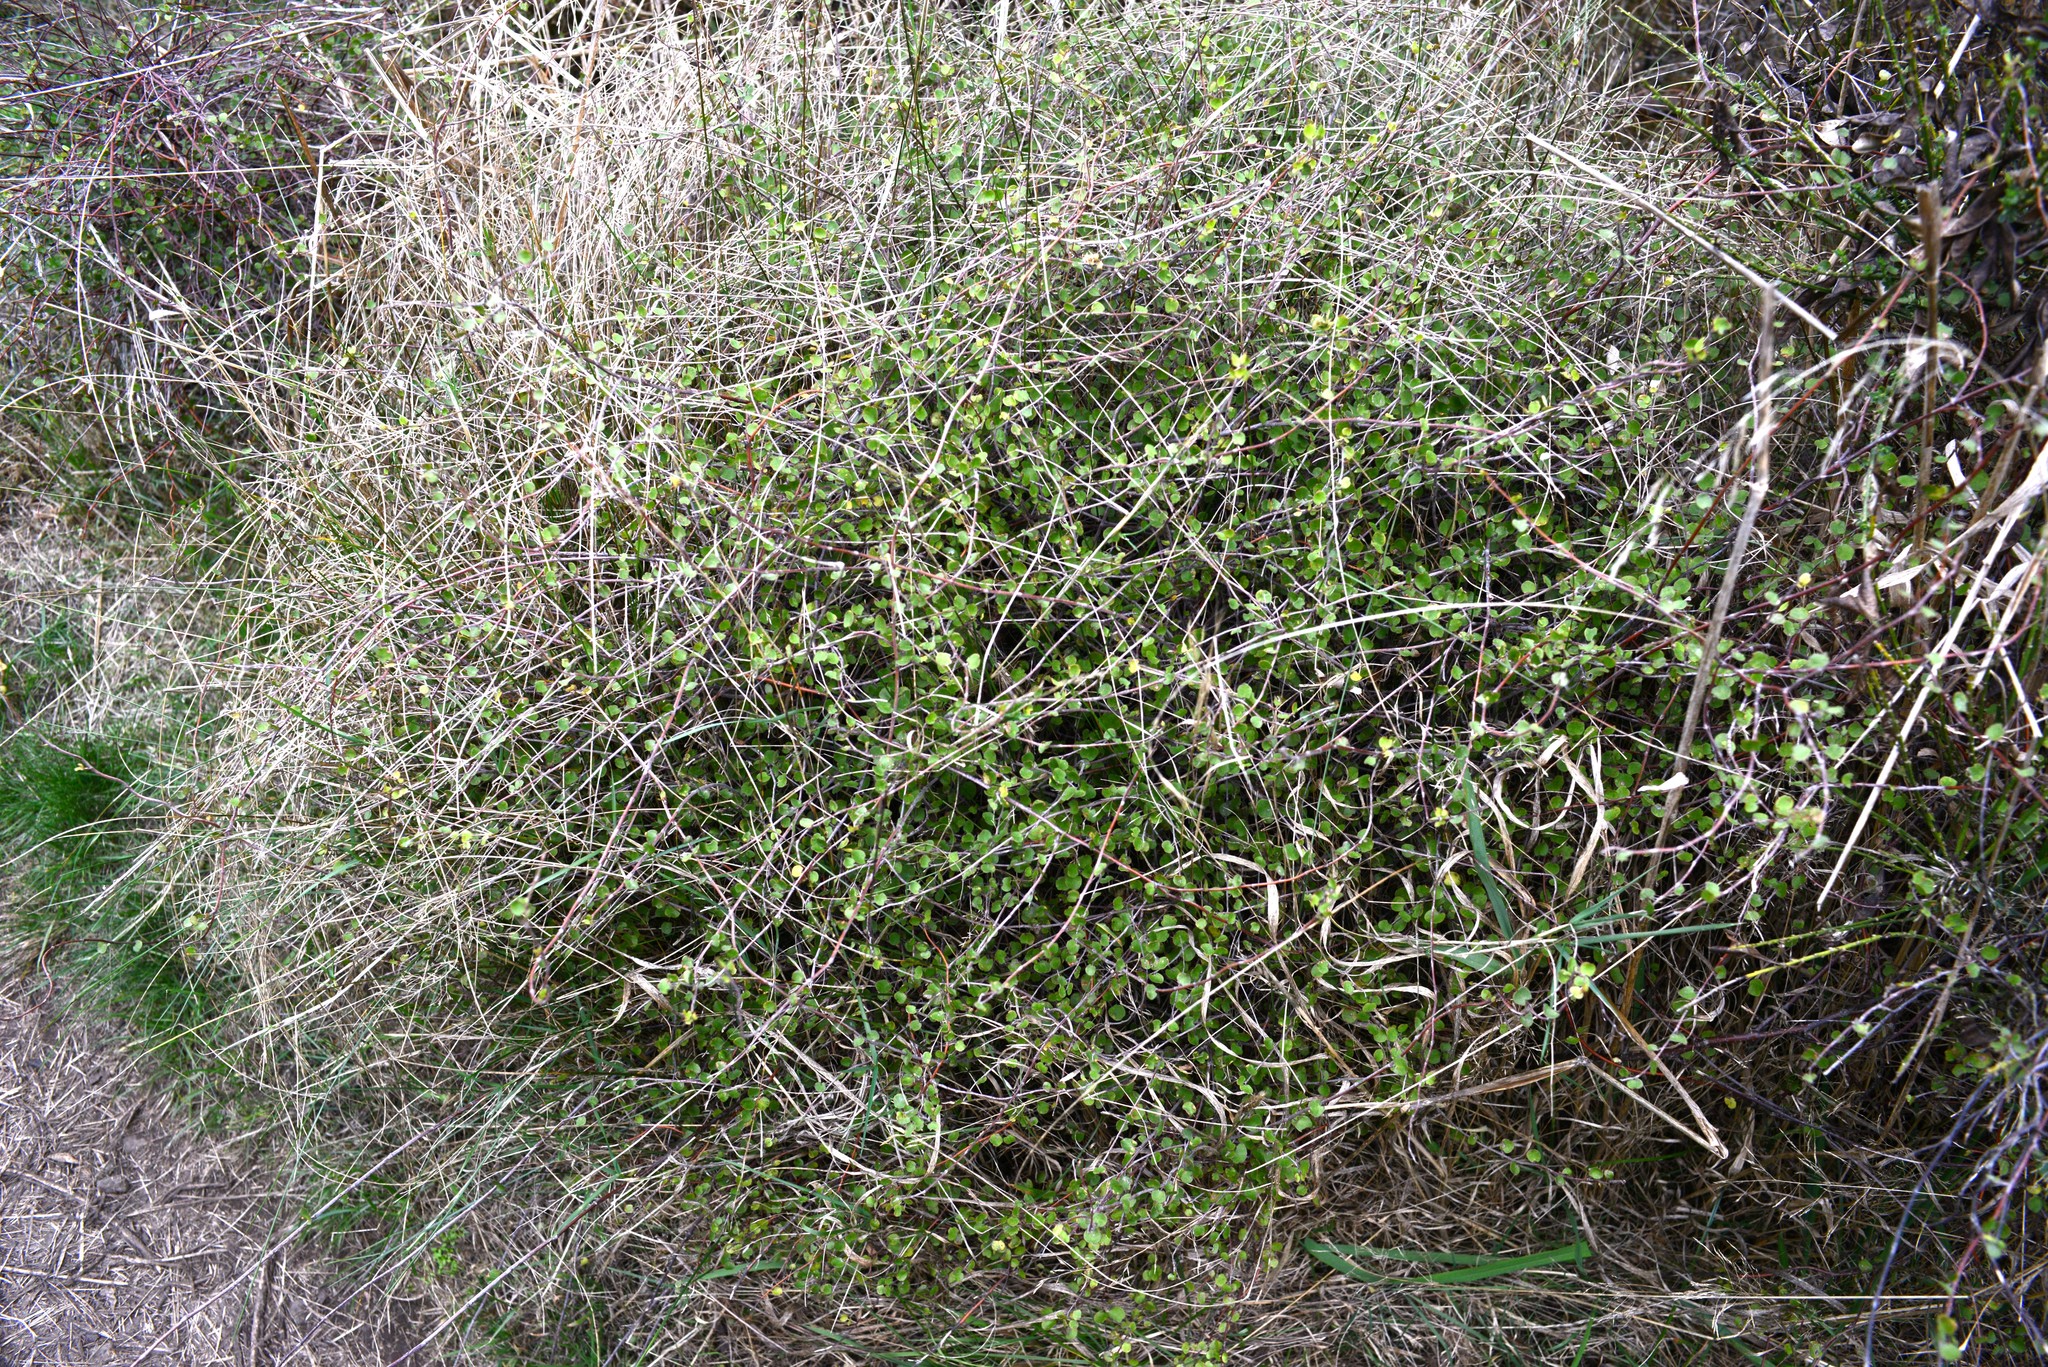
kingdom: Plantae
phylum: Tracheophyta
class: Magnoliopsida
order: Gentianales
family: Rubiaceae
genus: Coprosma
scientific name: Coprosma virescens
